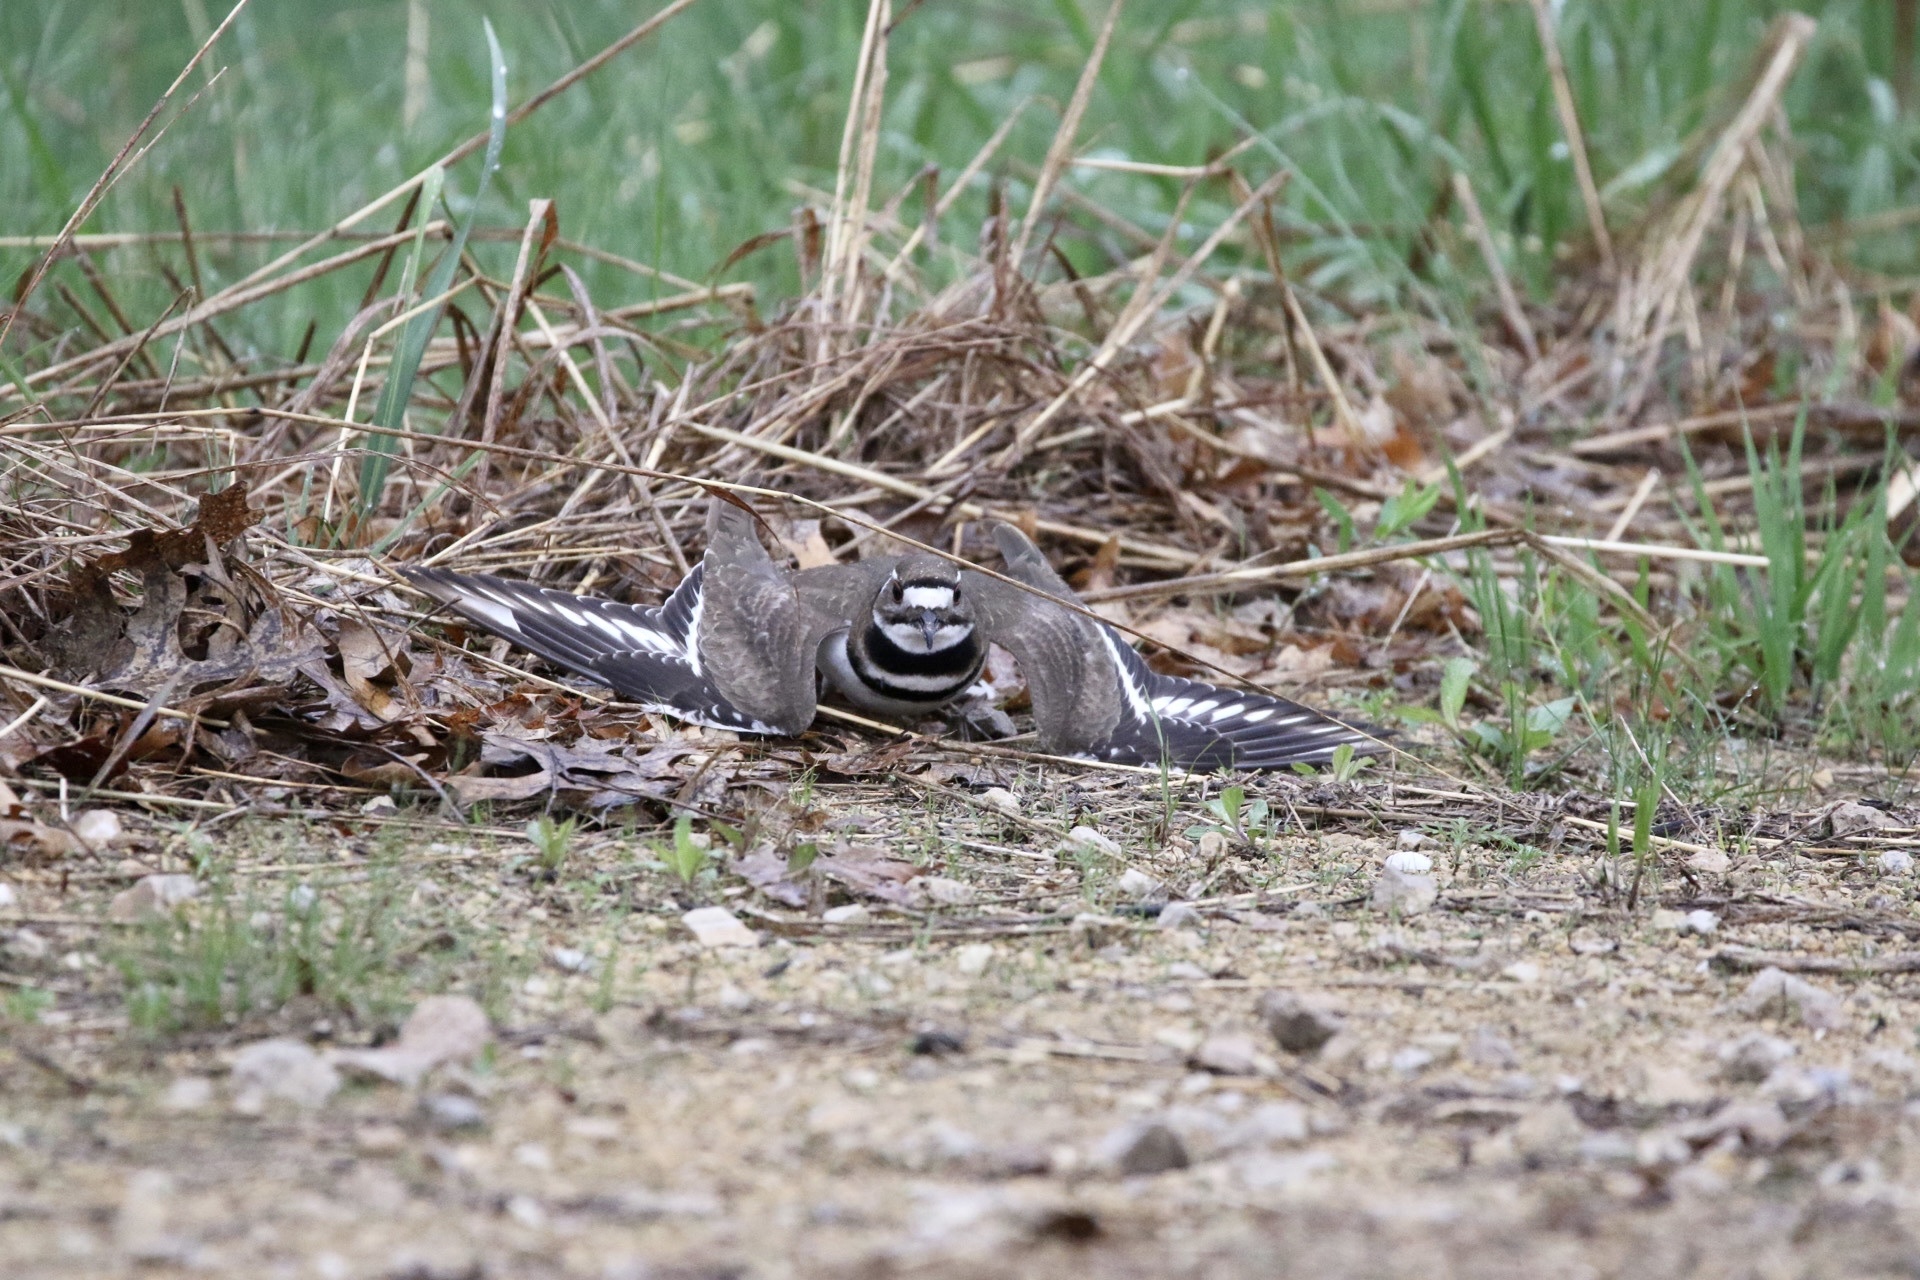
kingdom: Animalia
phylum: Chordata
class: Aves
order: Charadriiformes
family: Charadriidae
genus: Charadrius
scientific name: Charadrius vociferus
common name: Killdeer
